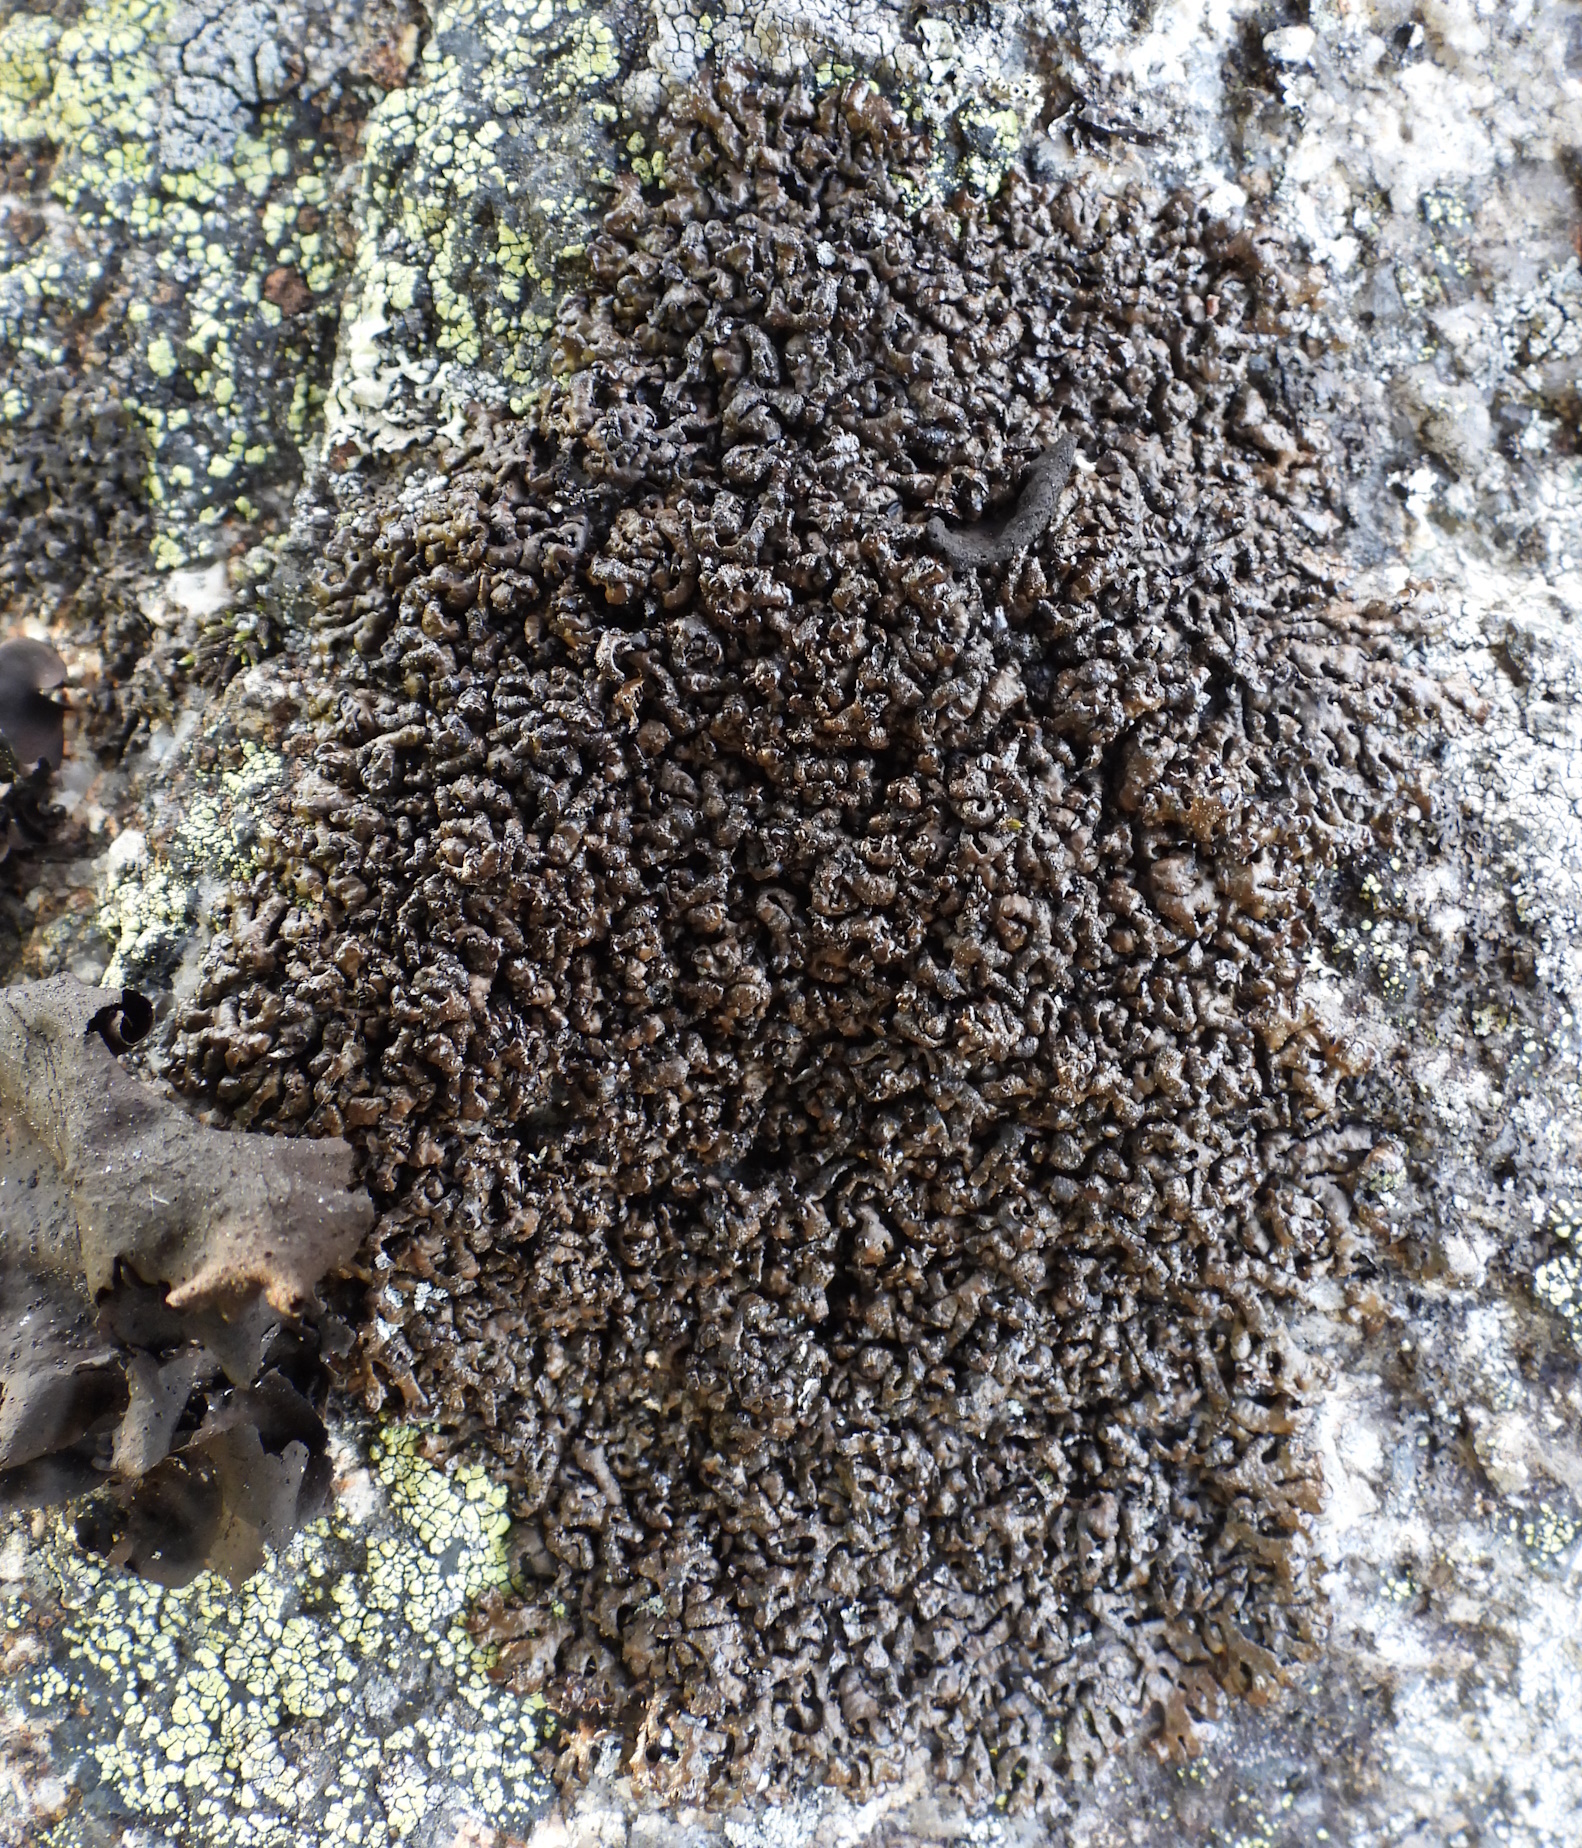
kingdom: Fungi
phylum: Ascomycota
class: Lecanoromycetes
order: Lecanorales
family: Parmeliaceae
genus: Melanelia
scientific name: Melanelia stygia
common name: Alpine camouflage lichen
